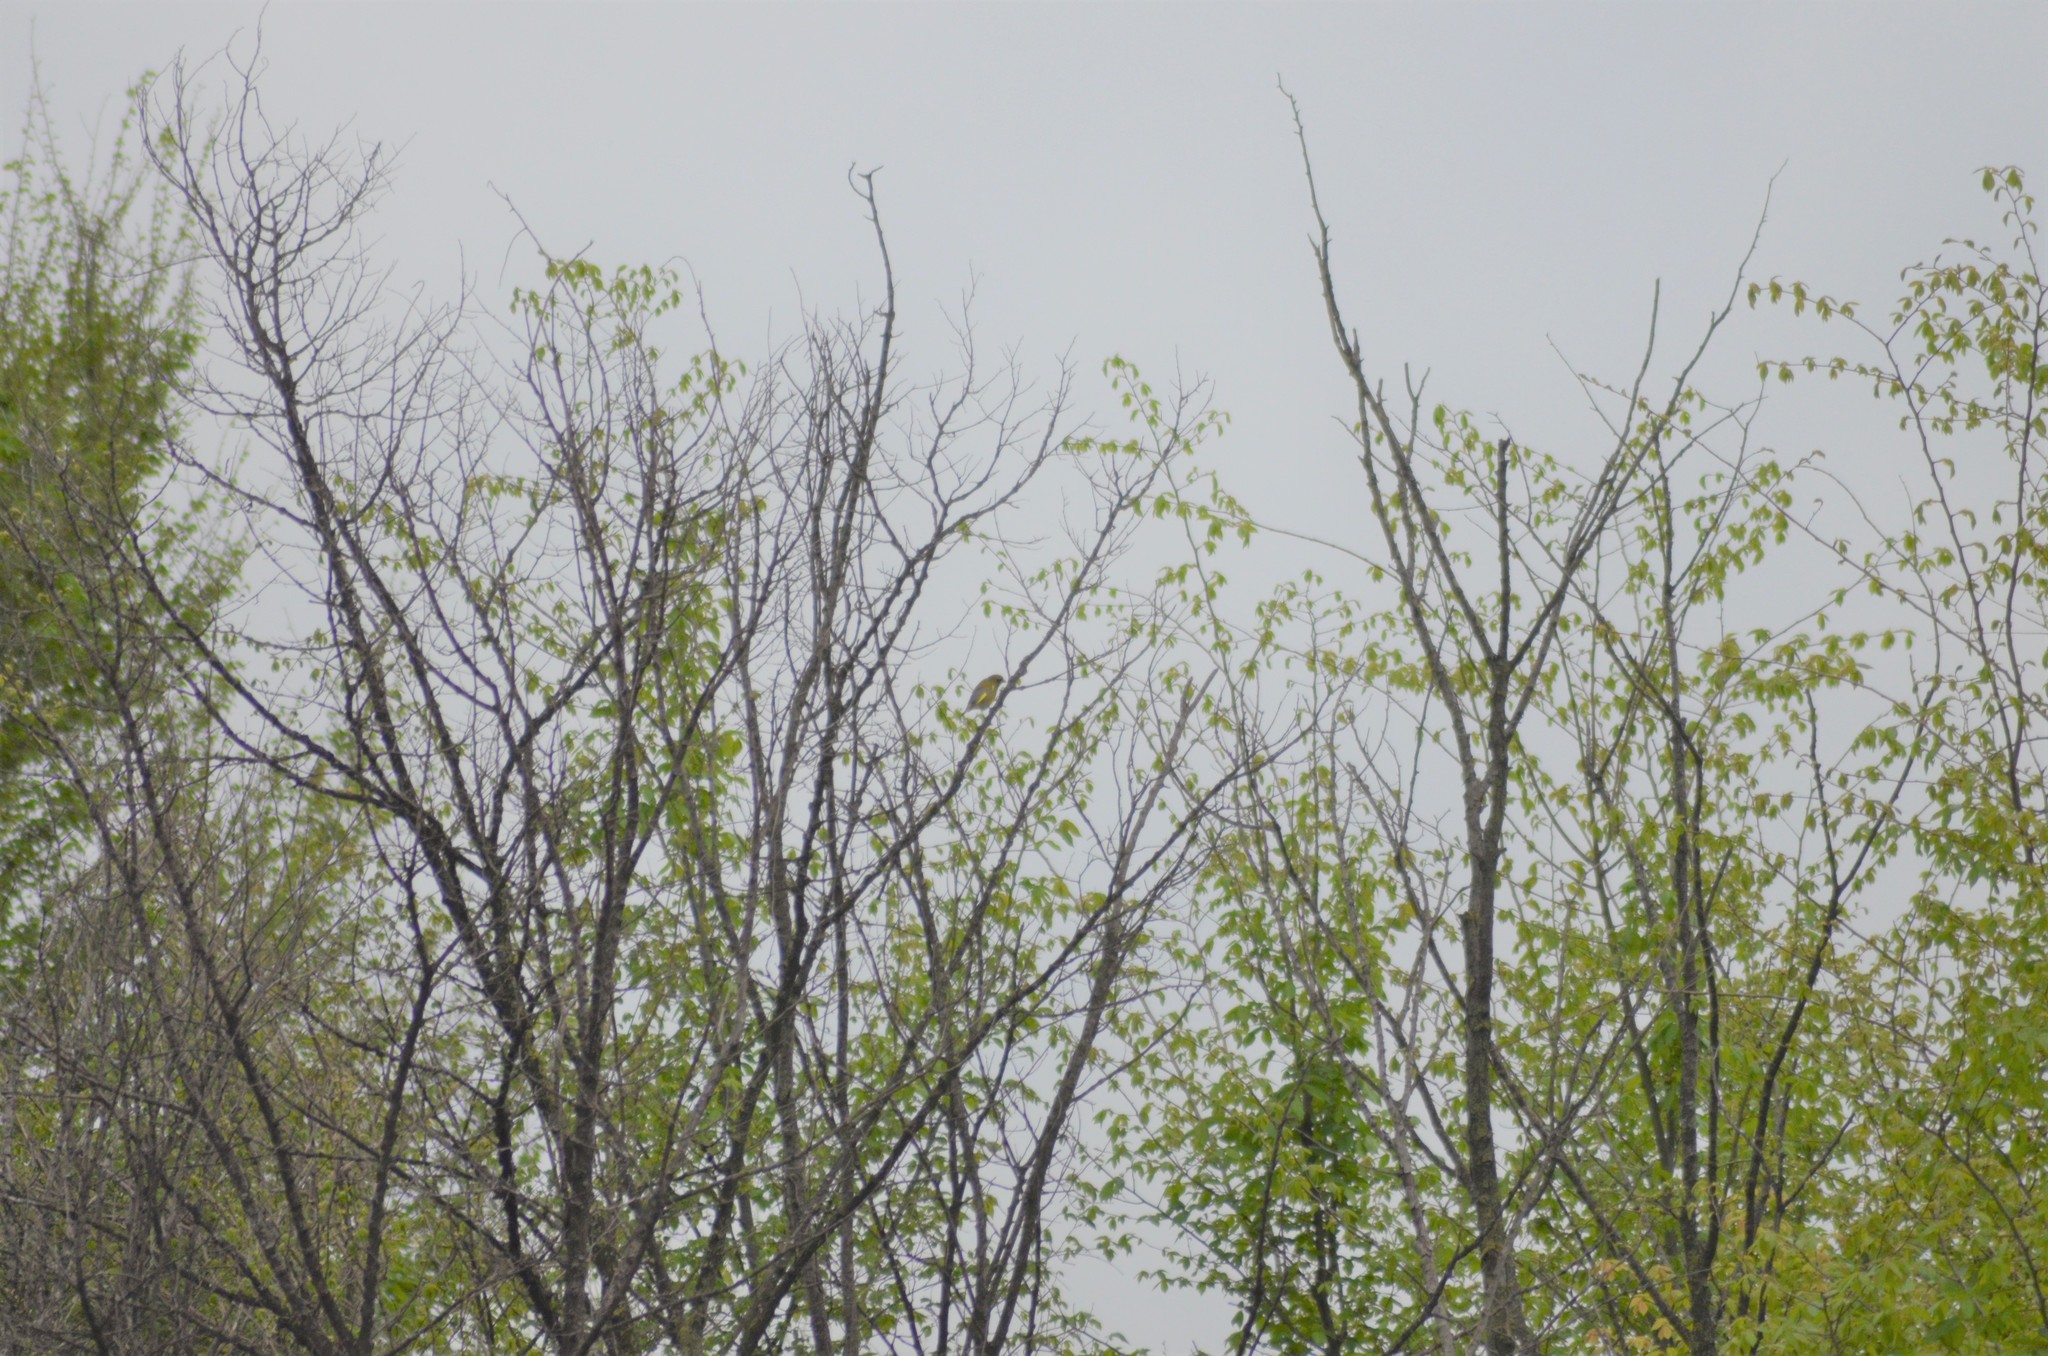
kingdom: Plantae
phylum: Tracheophyta
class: Liliopsida
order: Poales
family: Poaceae
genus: Chloris
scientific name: Chloris chloris
